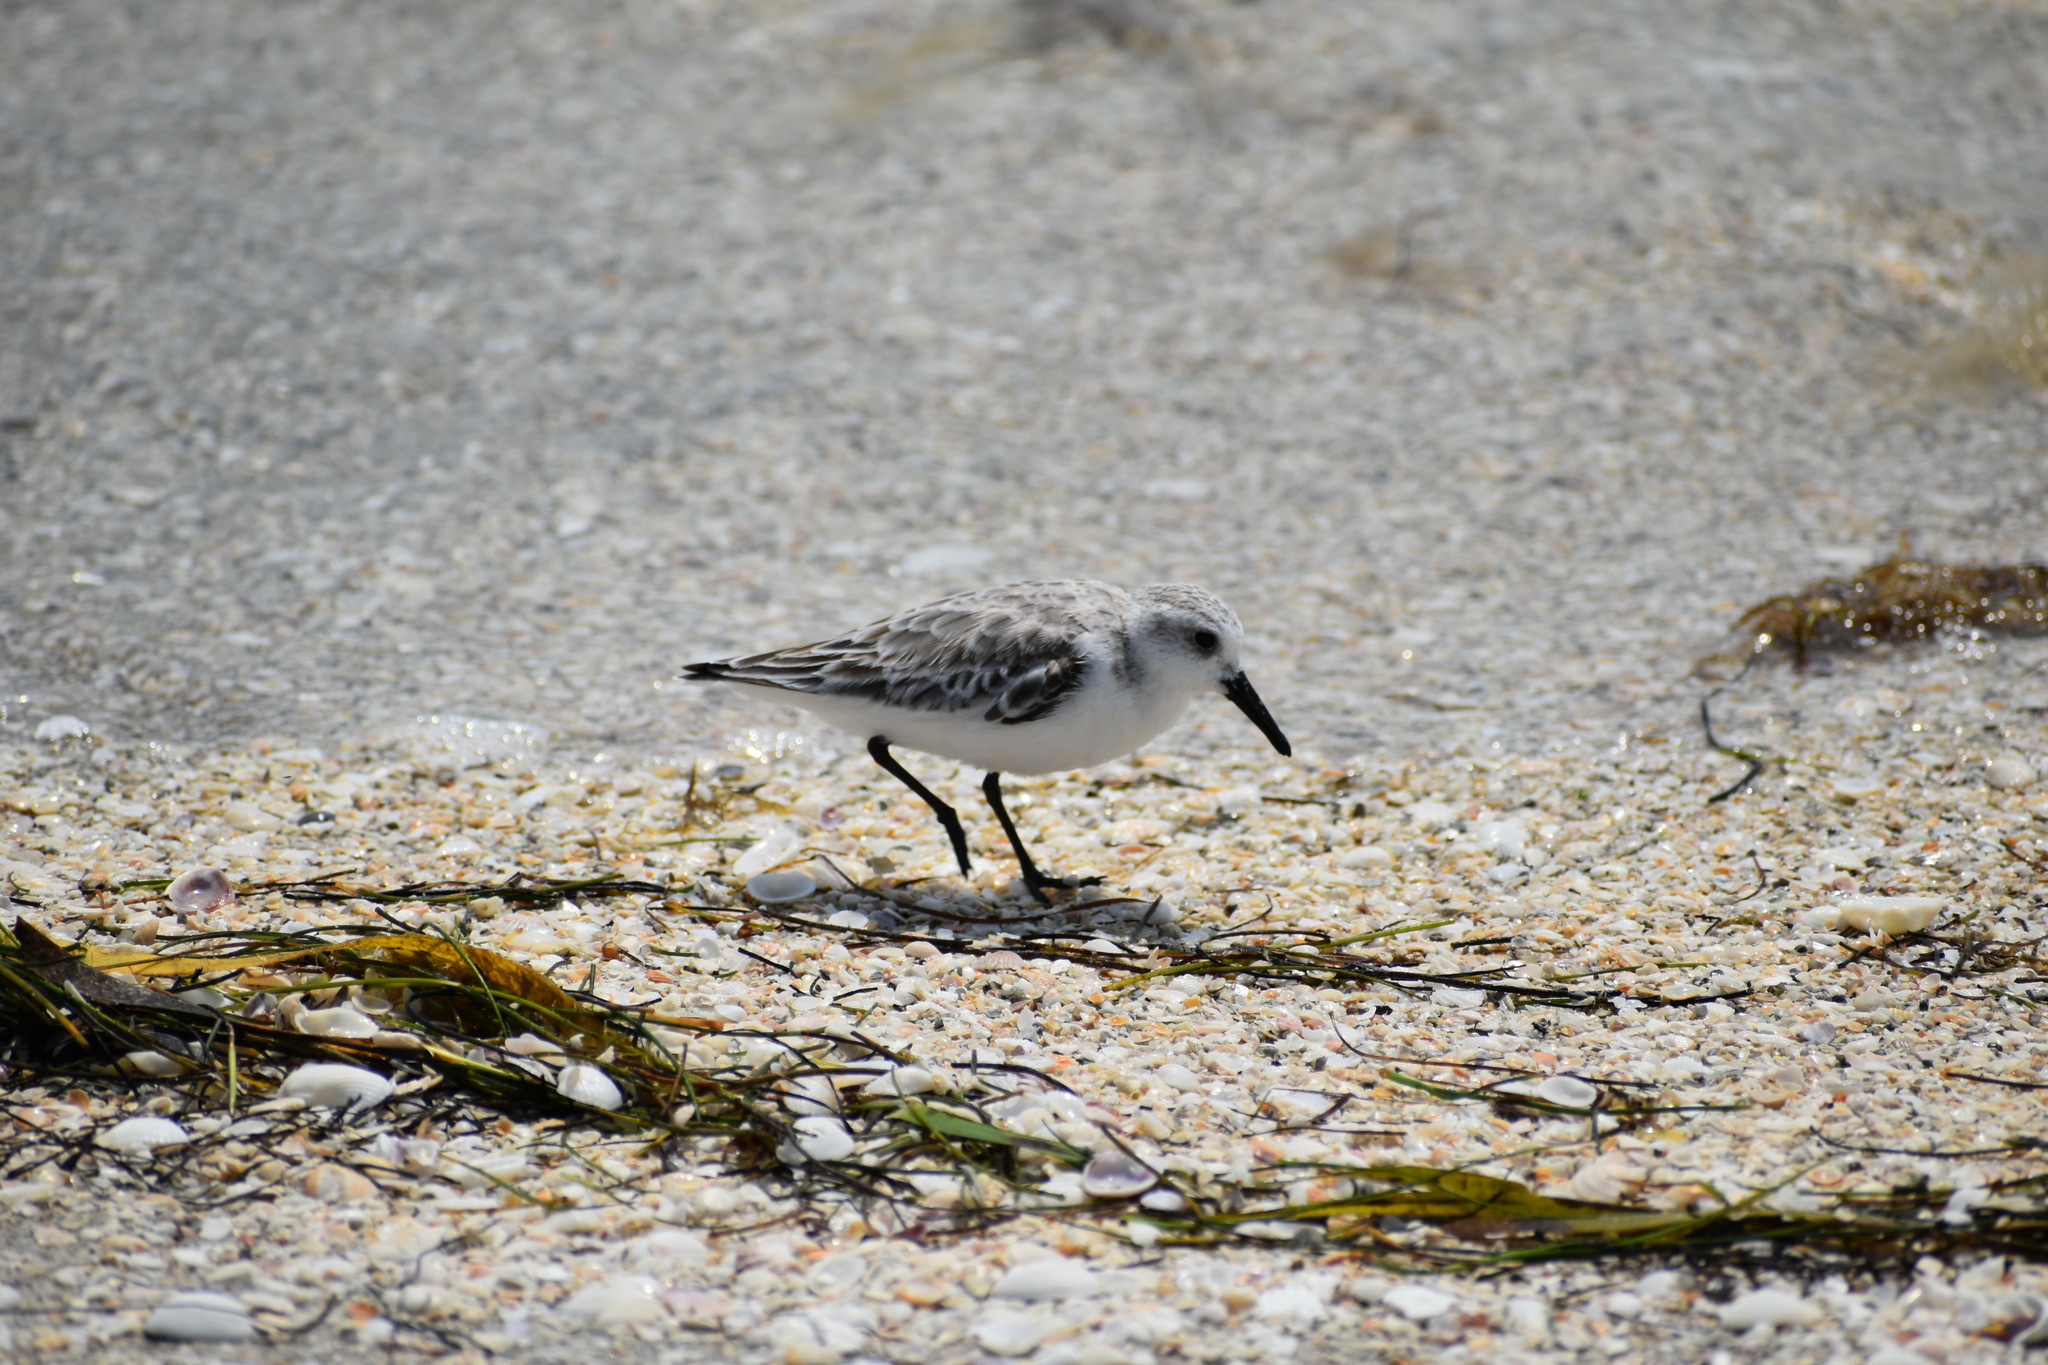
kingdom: Animalia
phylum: Chordata
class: Aves
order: Charadriiformes
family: Scolopacidae
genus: Calidris
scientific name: Calidris alba
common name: Sanderling
